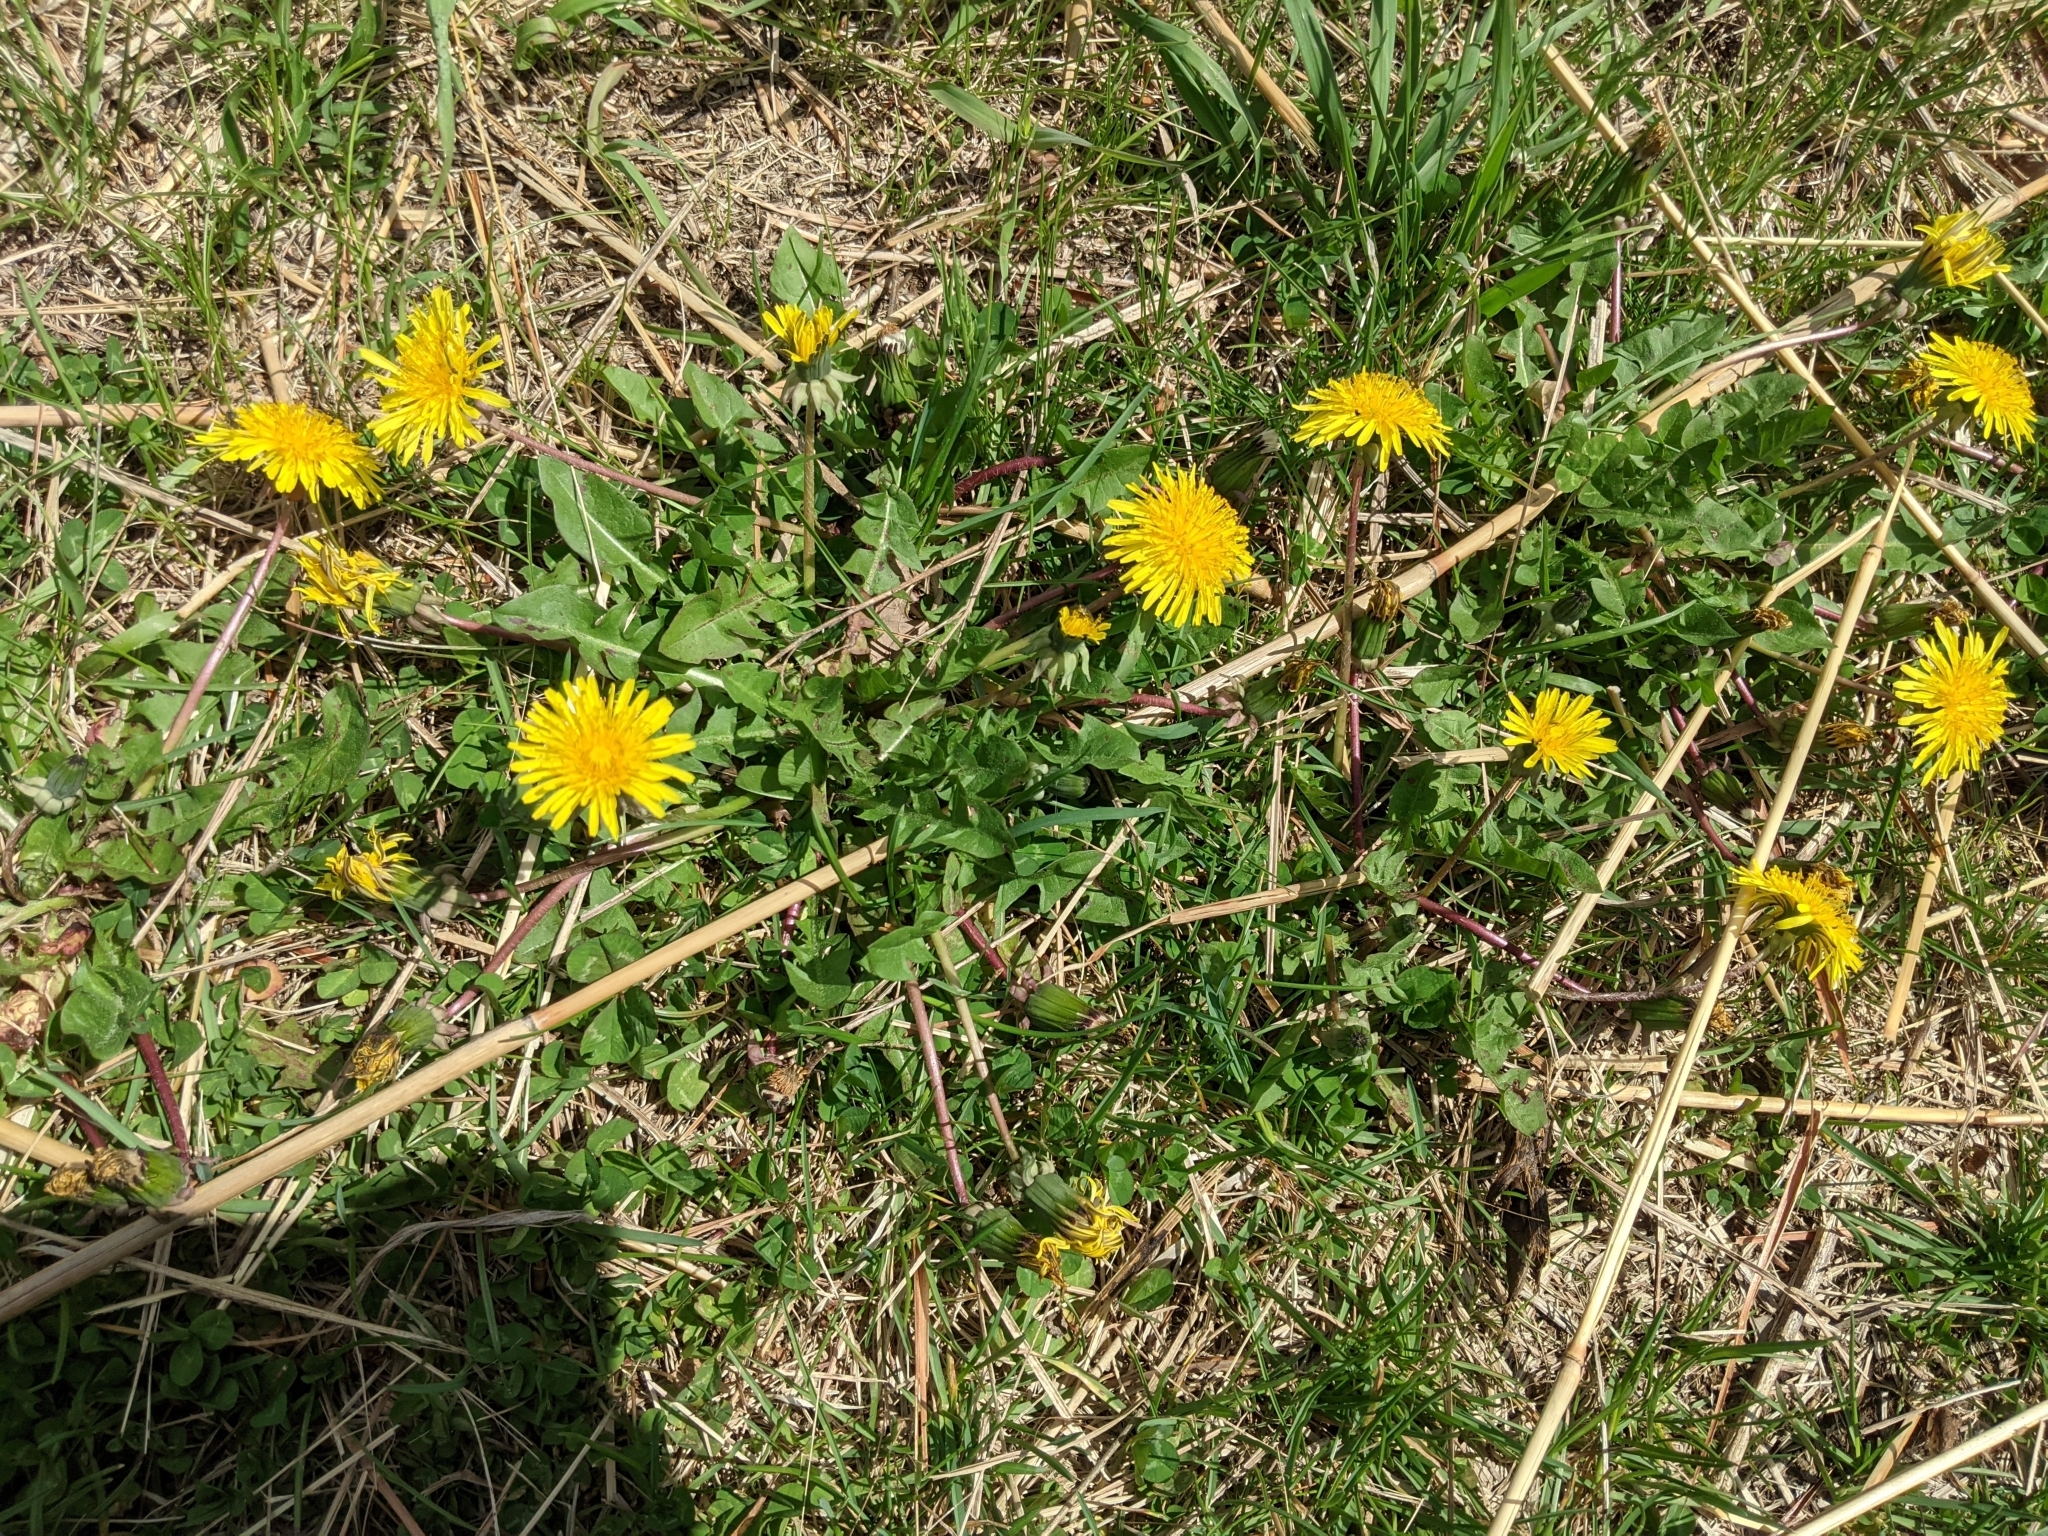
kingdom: Plantae
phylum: Tracheophyta
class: Magnoliopsida
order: Asterales
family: Asteraceae
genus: Taraxacum
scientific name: Taraxacum officinale
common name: Common dandelion
